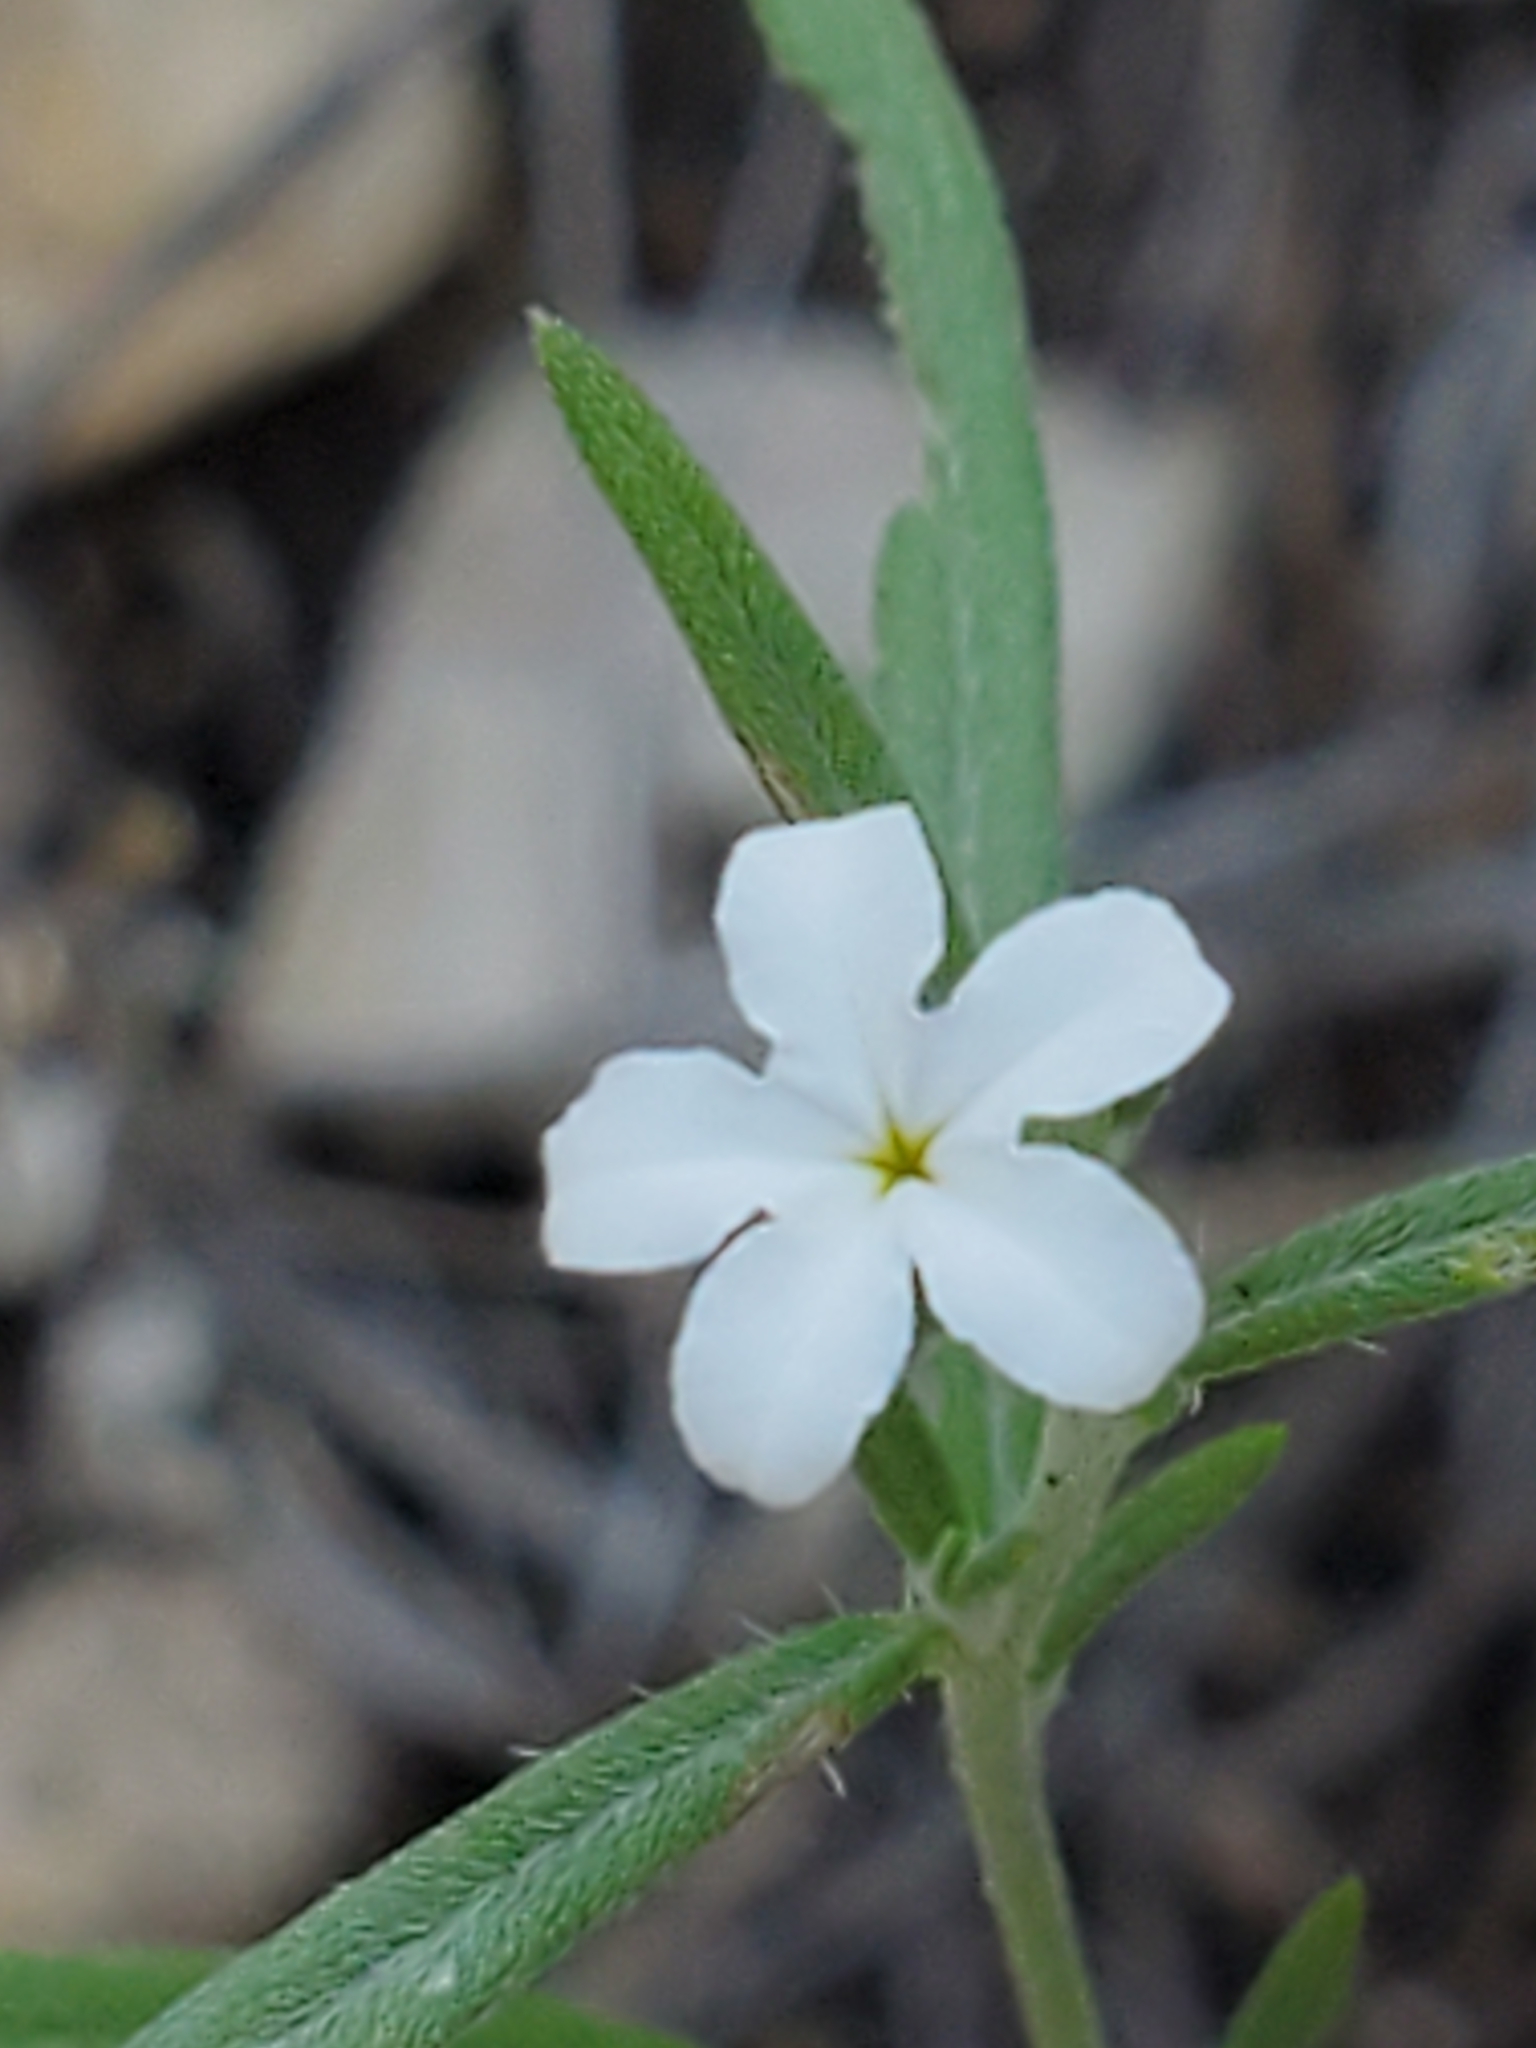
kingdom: Plantae
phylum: Tracheophyta
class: Magnoliopsida
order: Boraginales
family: Heliotropiaceae
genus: Euploca
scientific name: Euploca tenella
